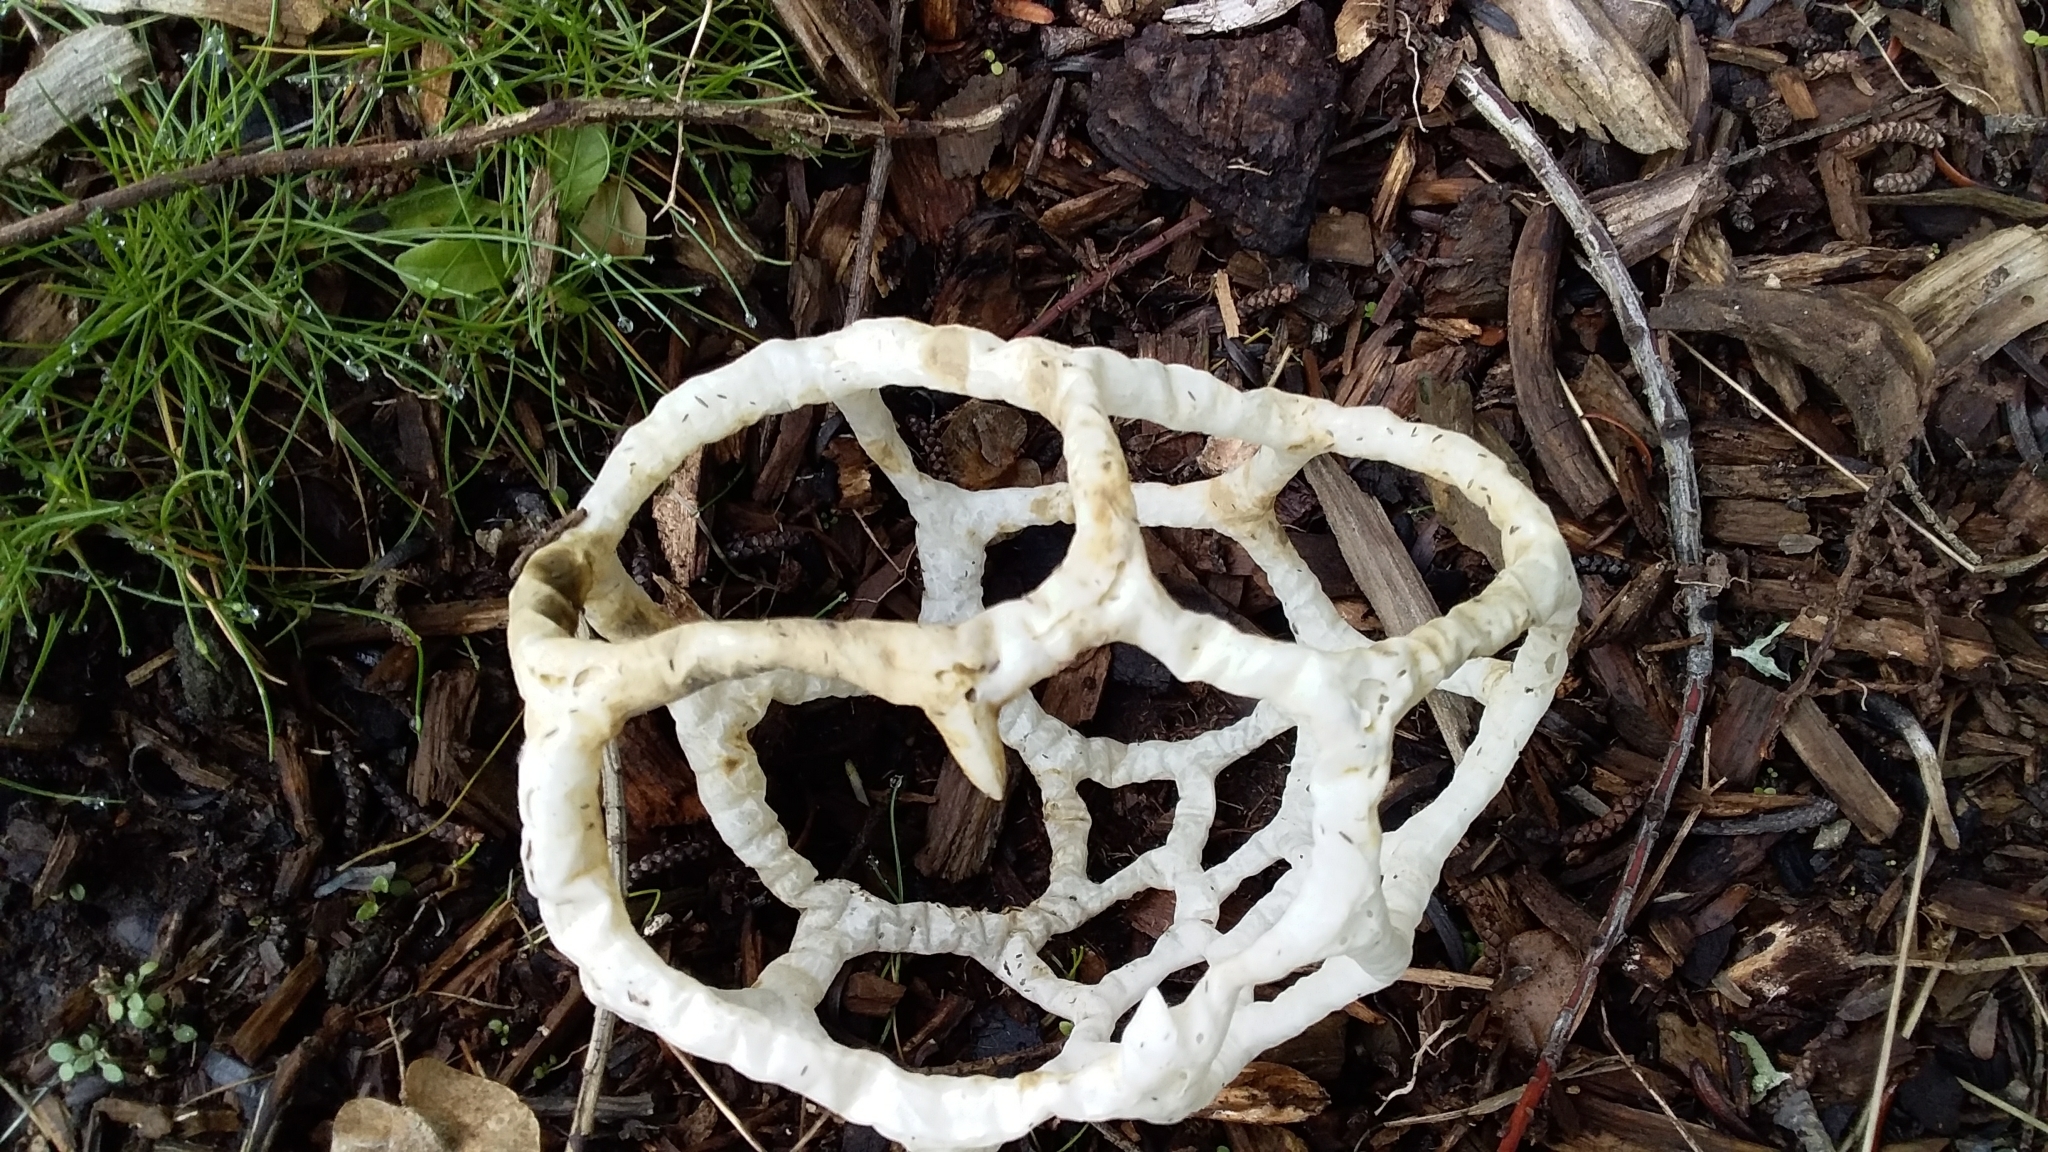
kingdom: Fungi
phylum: Basidiomycota
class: Agaricomycetes
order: Phallales
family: Phallaceae
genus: Ileodictyon
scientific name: Ileodictyon cibarium
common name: Basket fungus
